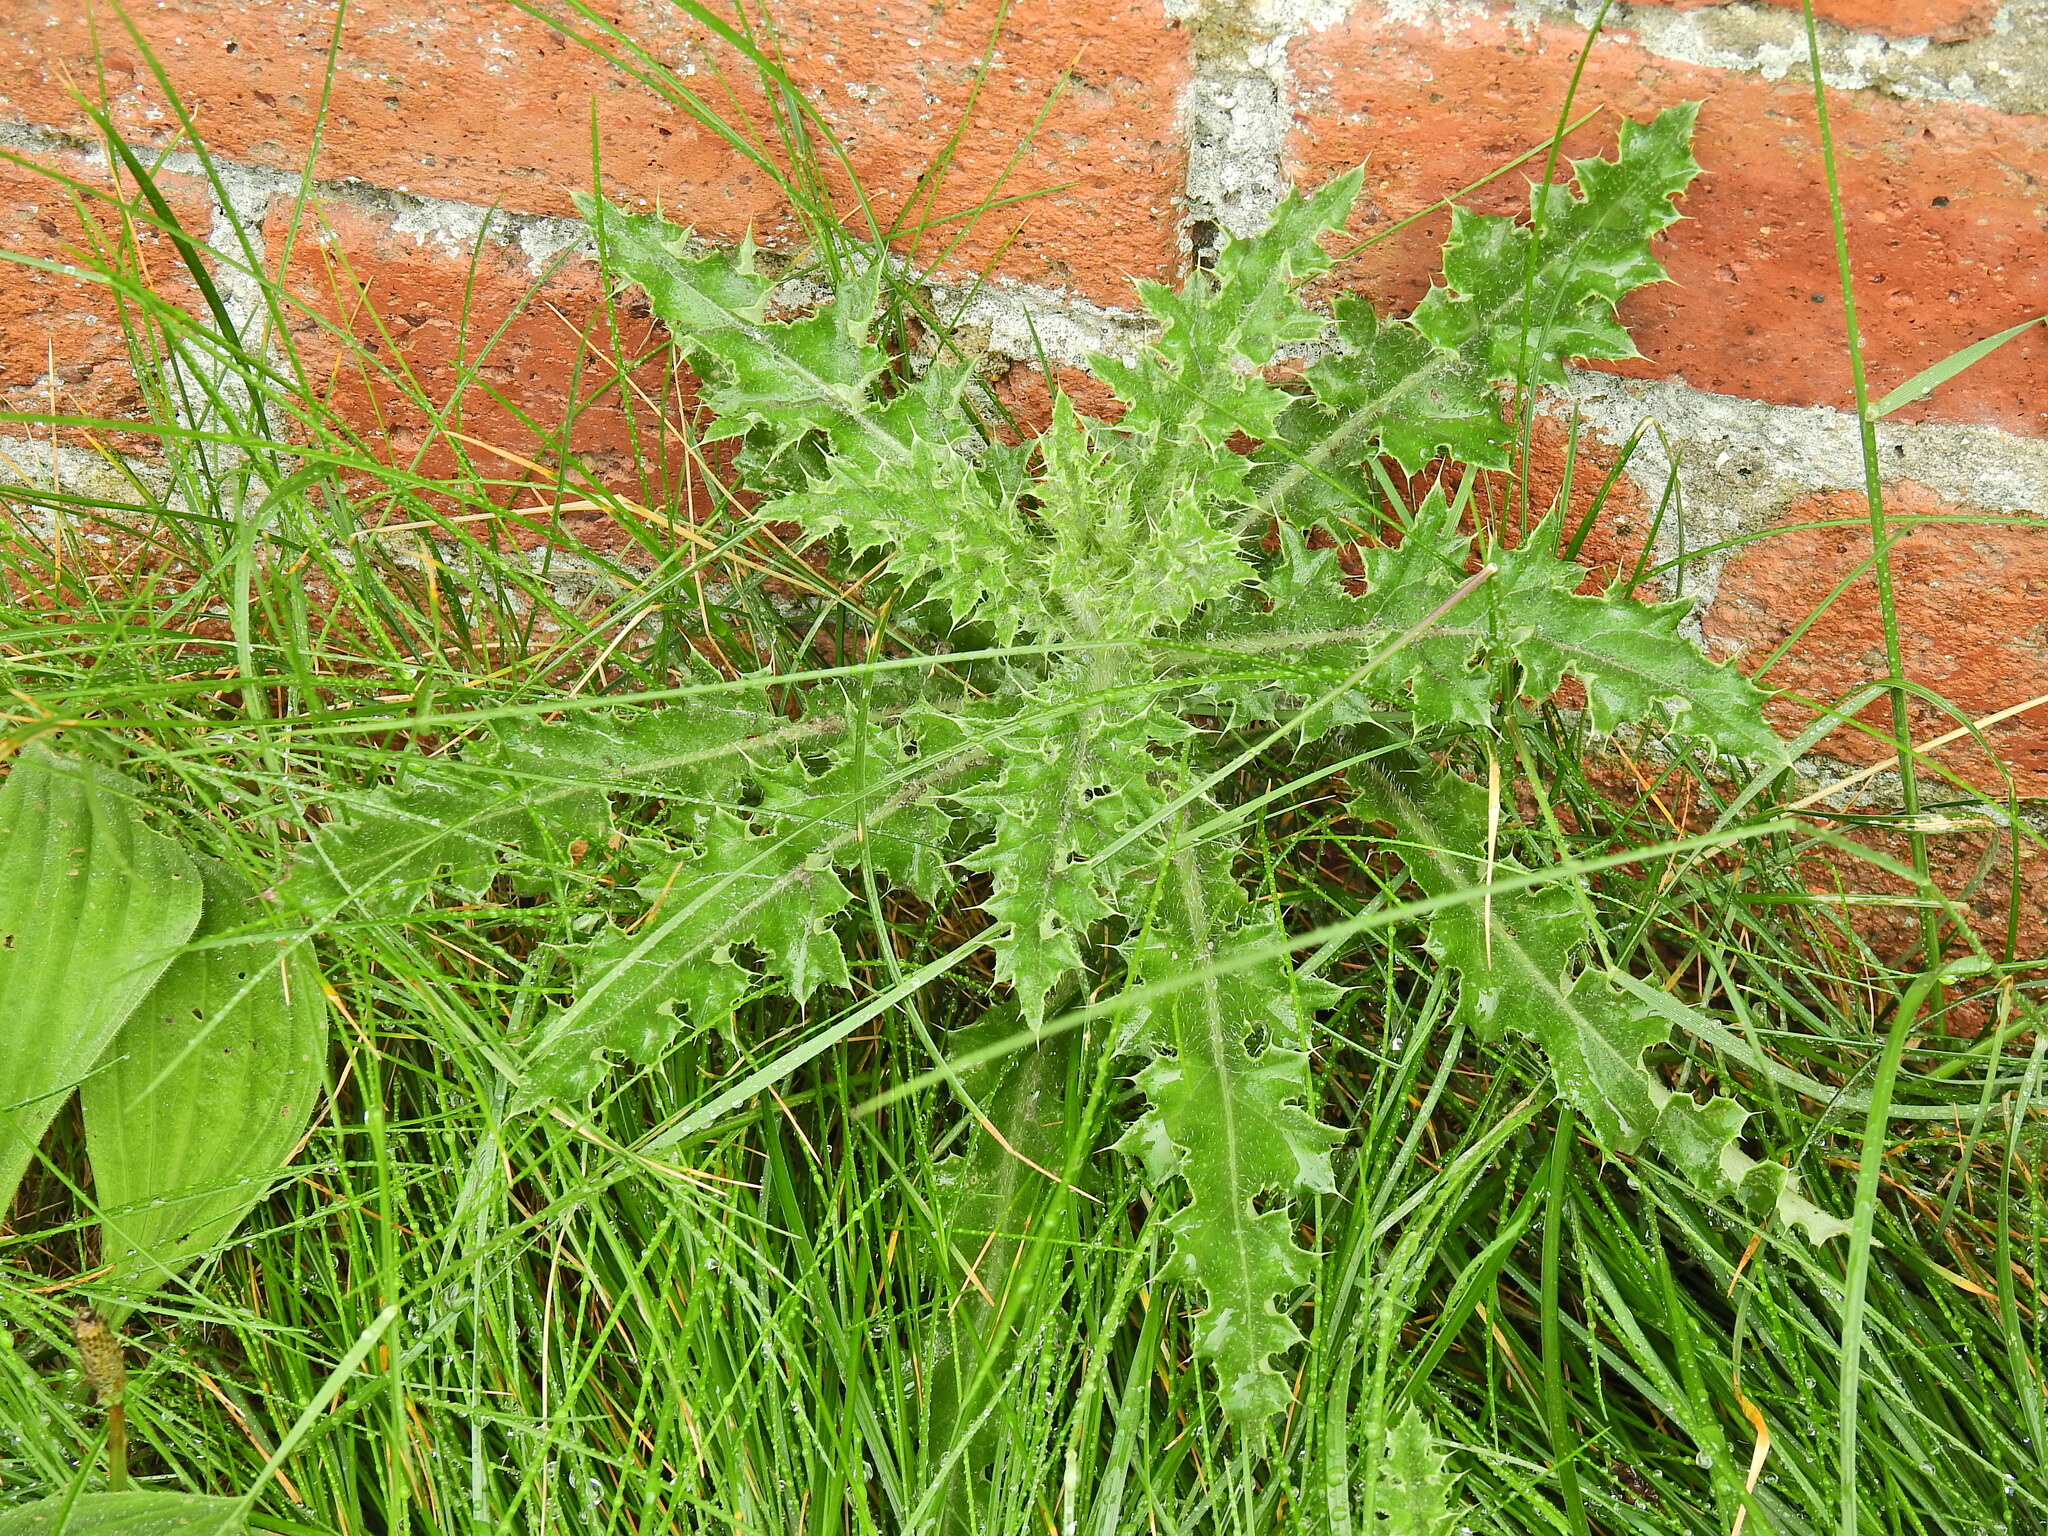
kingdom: Plantae
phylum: Tracheophyta
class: Magnoliopsida
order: Asterales
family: Asteraceae
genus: Cirsium
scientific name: Cirsium arvense
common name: Creeping thistle
